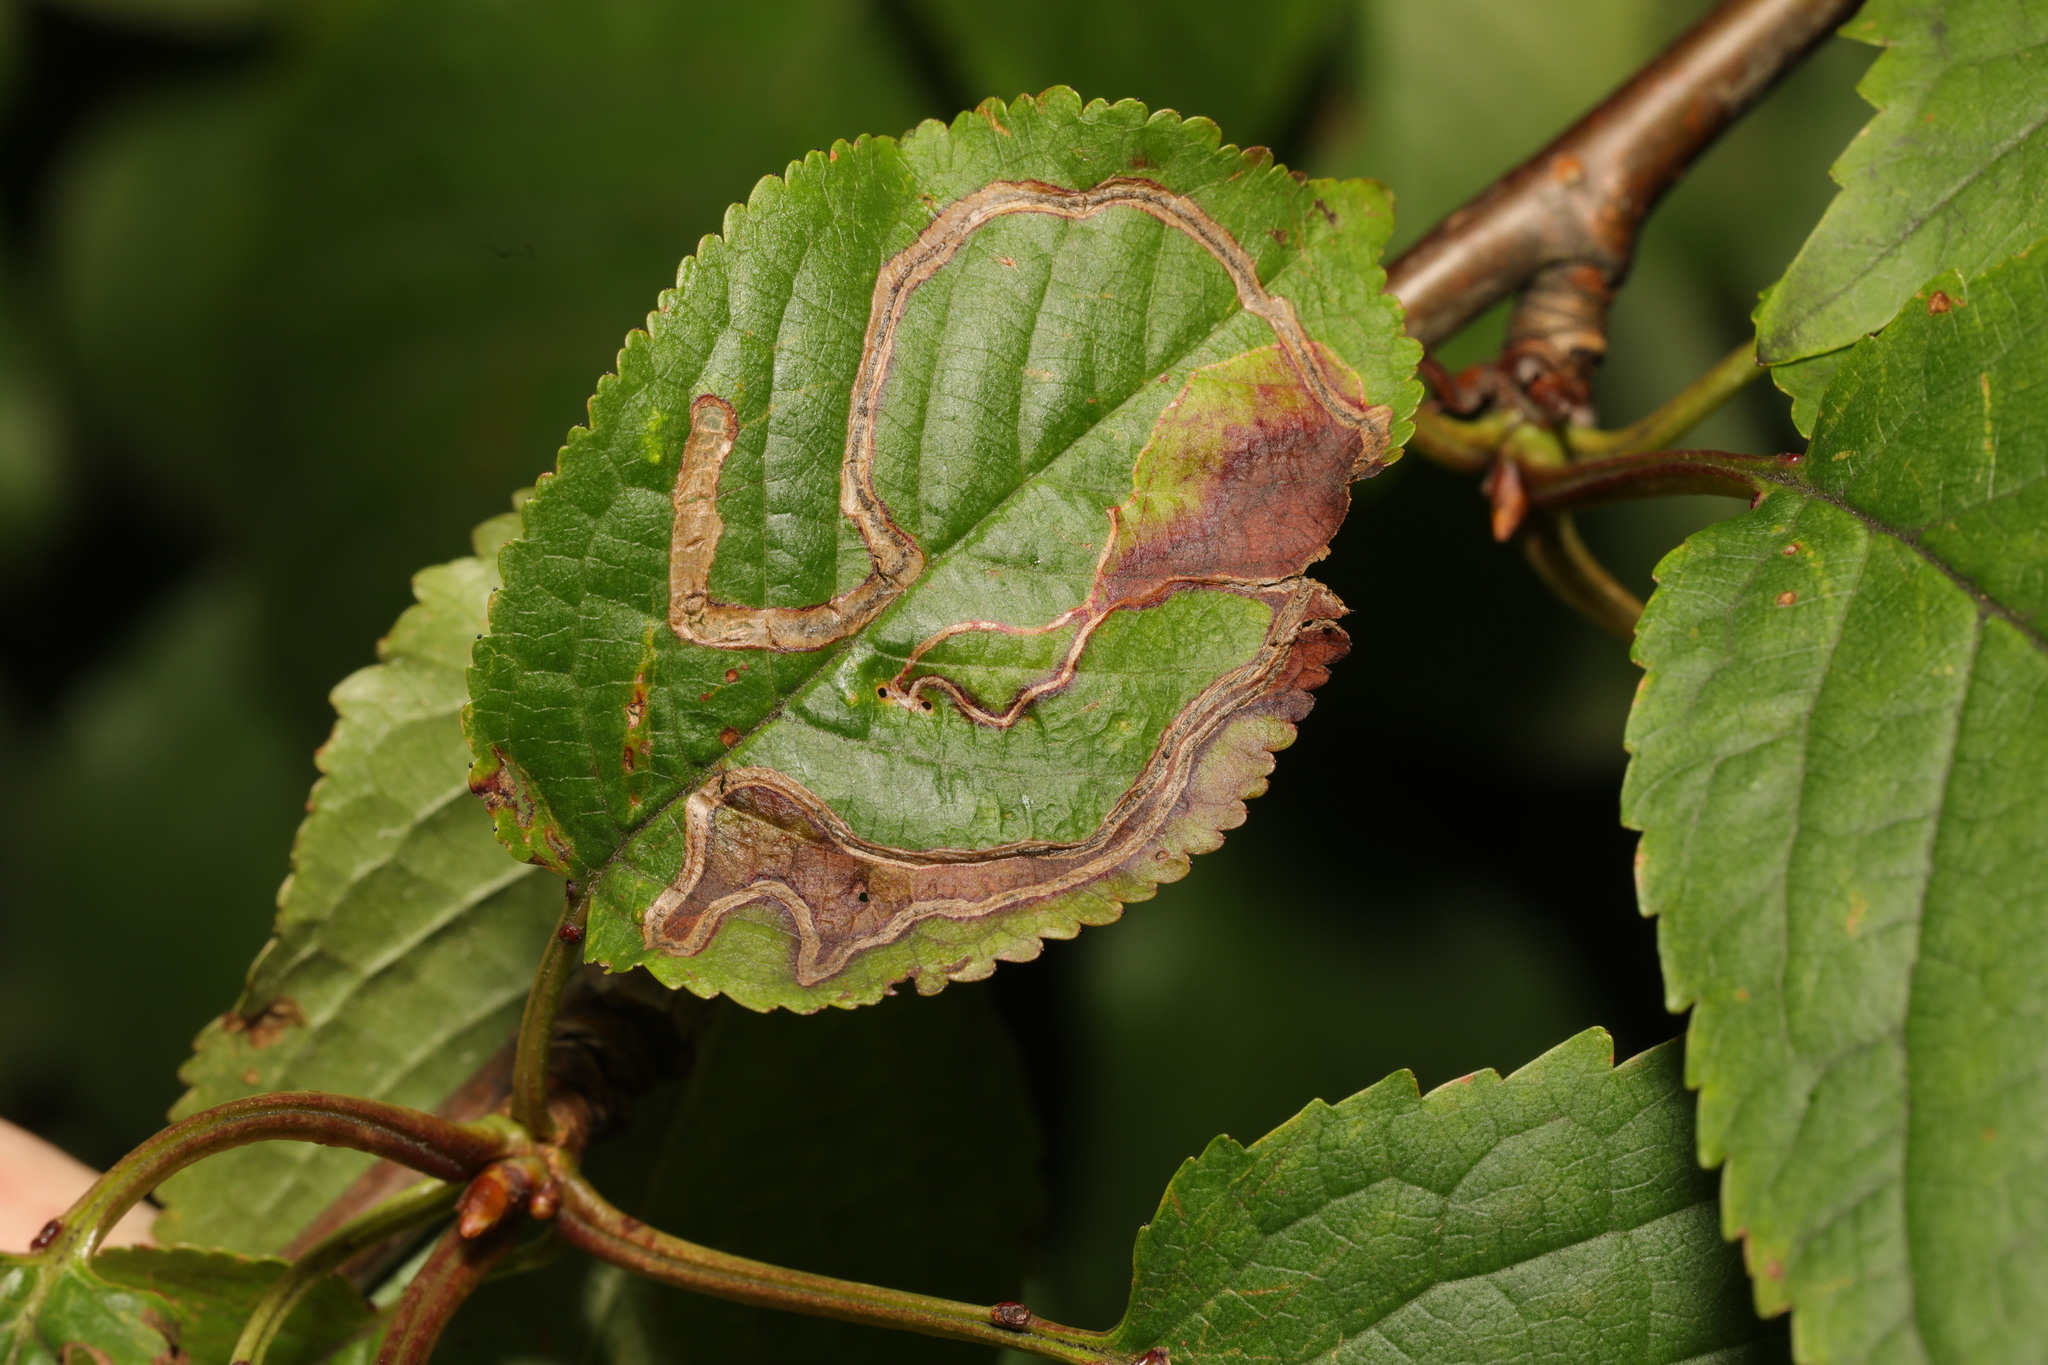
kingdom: Animalia
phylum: Arthropoda
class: Insecta
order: Lepidoptera
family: Lyonetiidae
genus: Lyonetia
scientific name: Lyonetia clerkella
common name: Apple leaf miner
